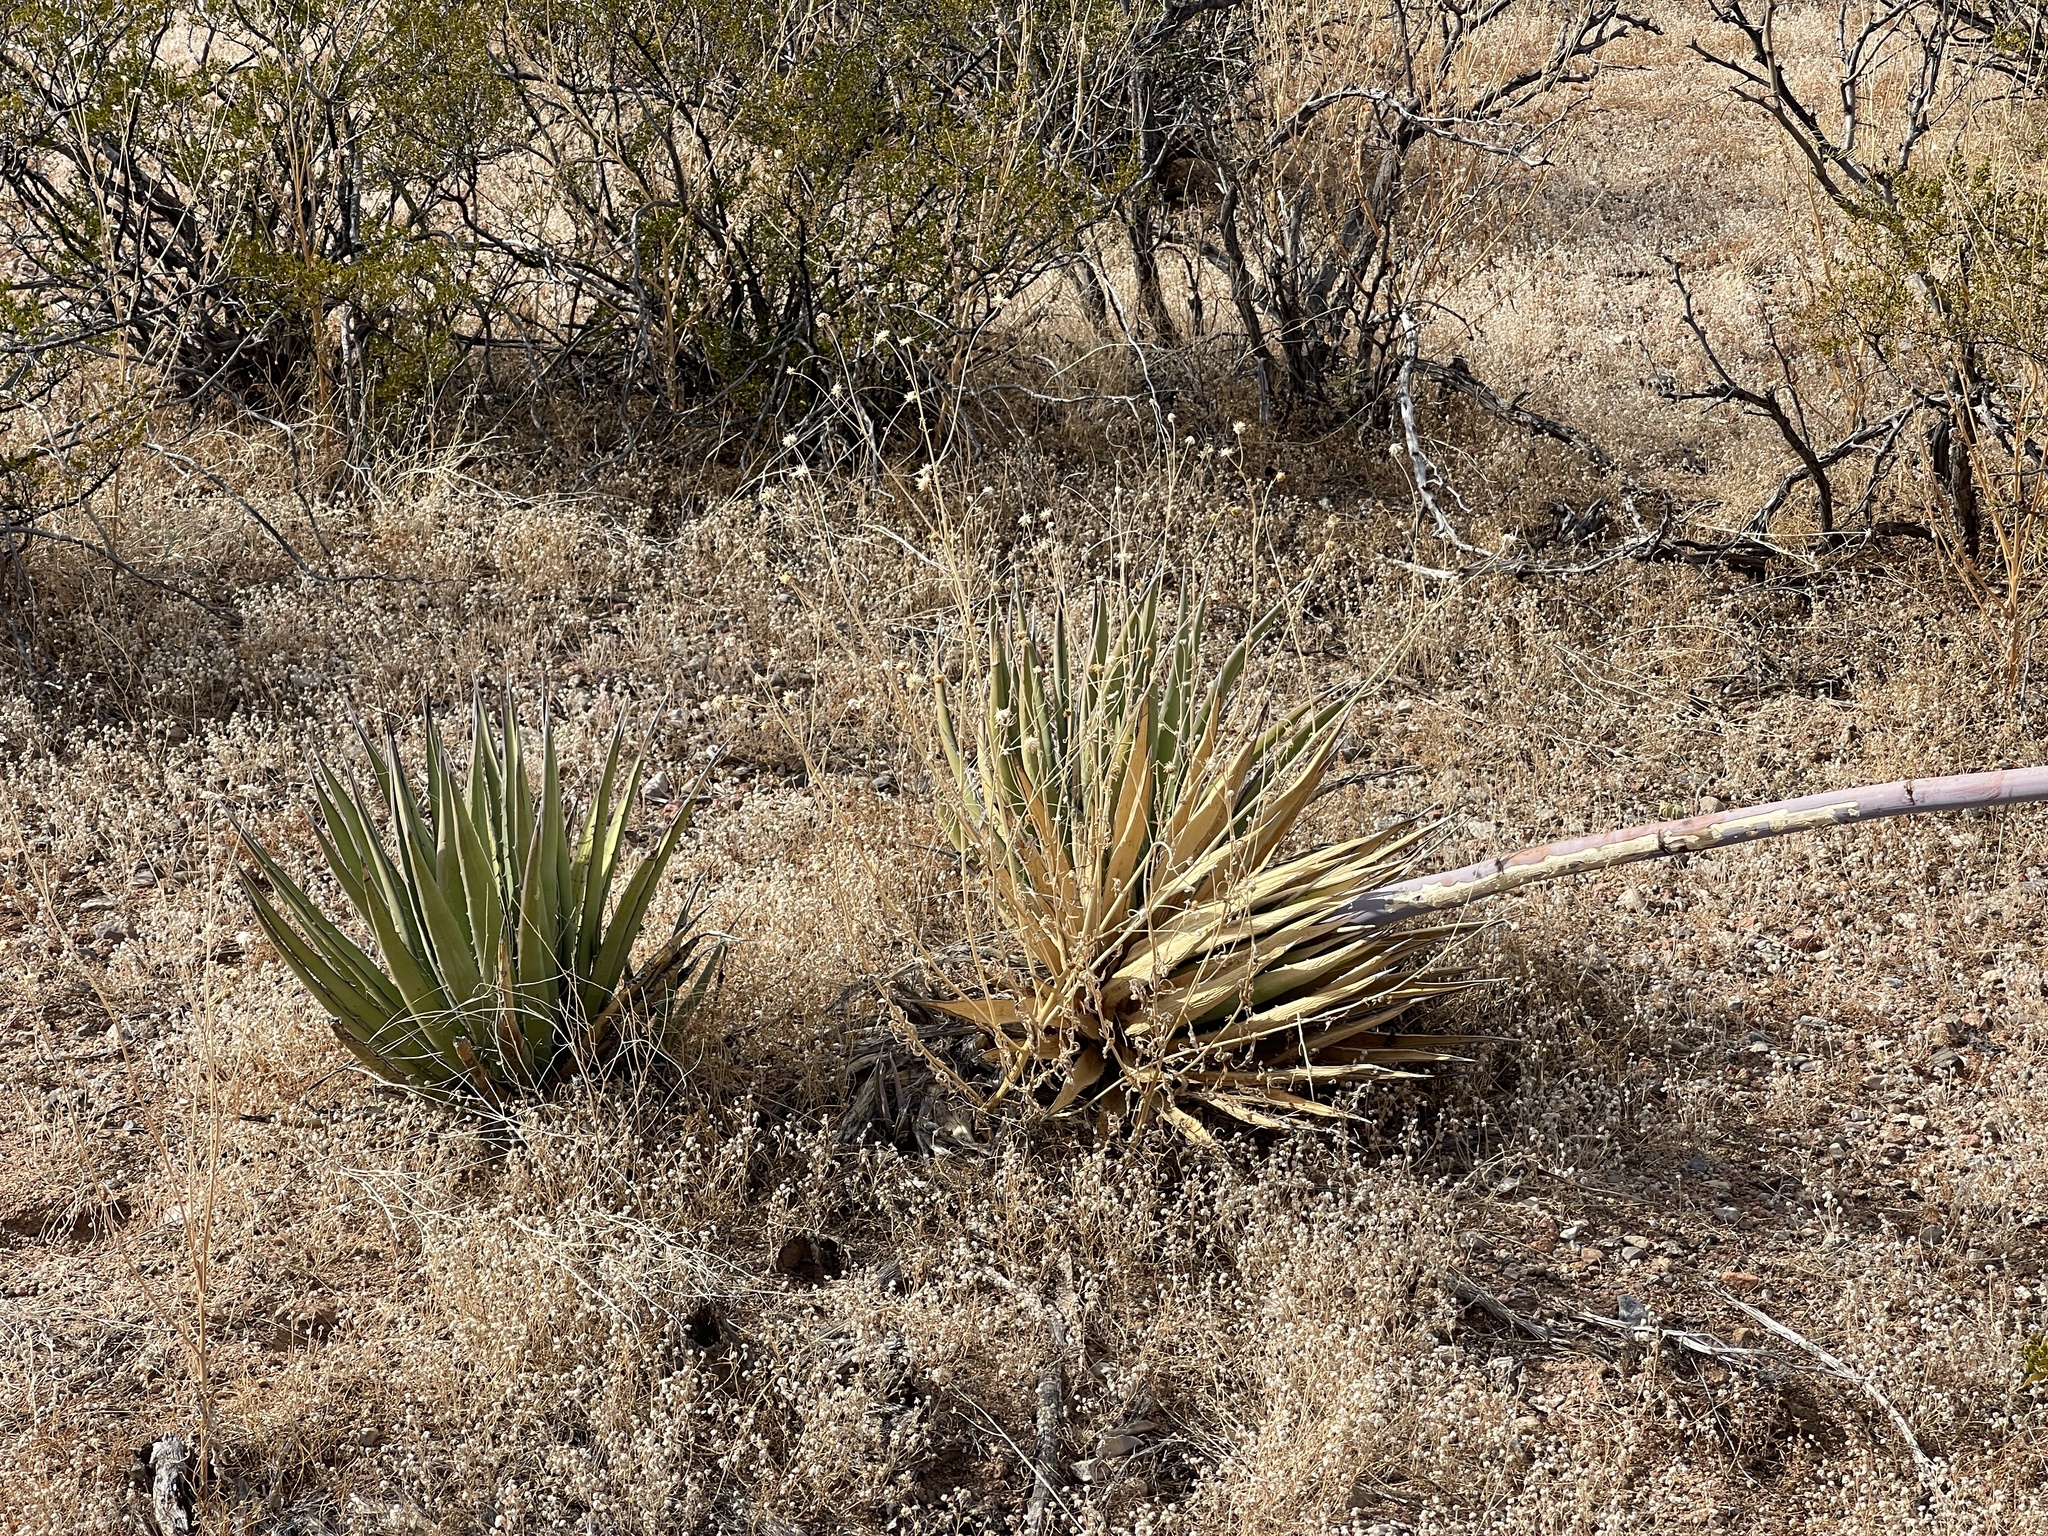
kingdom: Plantae
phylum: Tracheophyta
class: Liliopsida
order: Asparagales
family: Asparagaceae
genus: Agave
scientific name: Agave lechuguilla
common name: Lecheguilla agave
